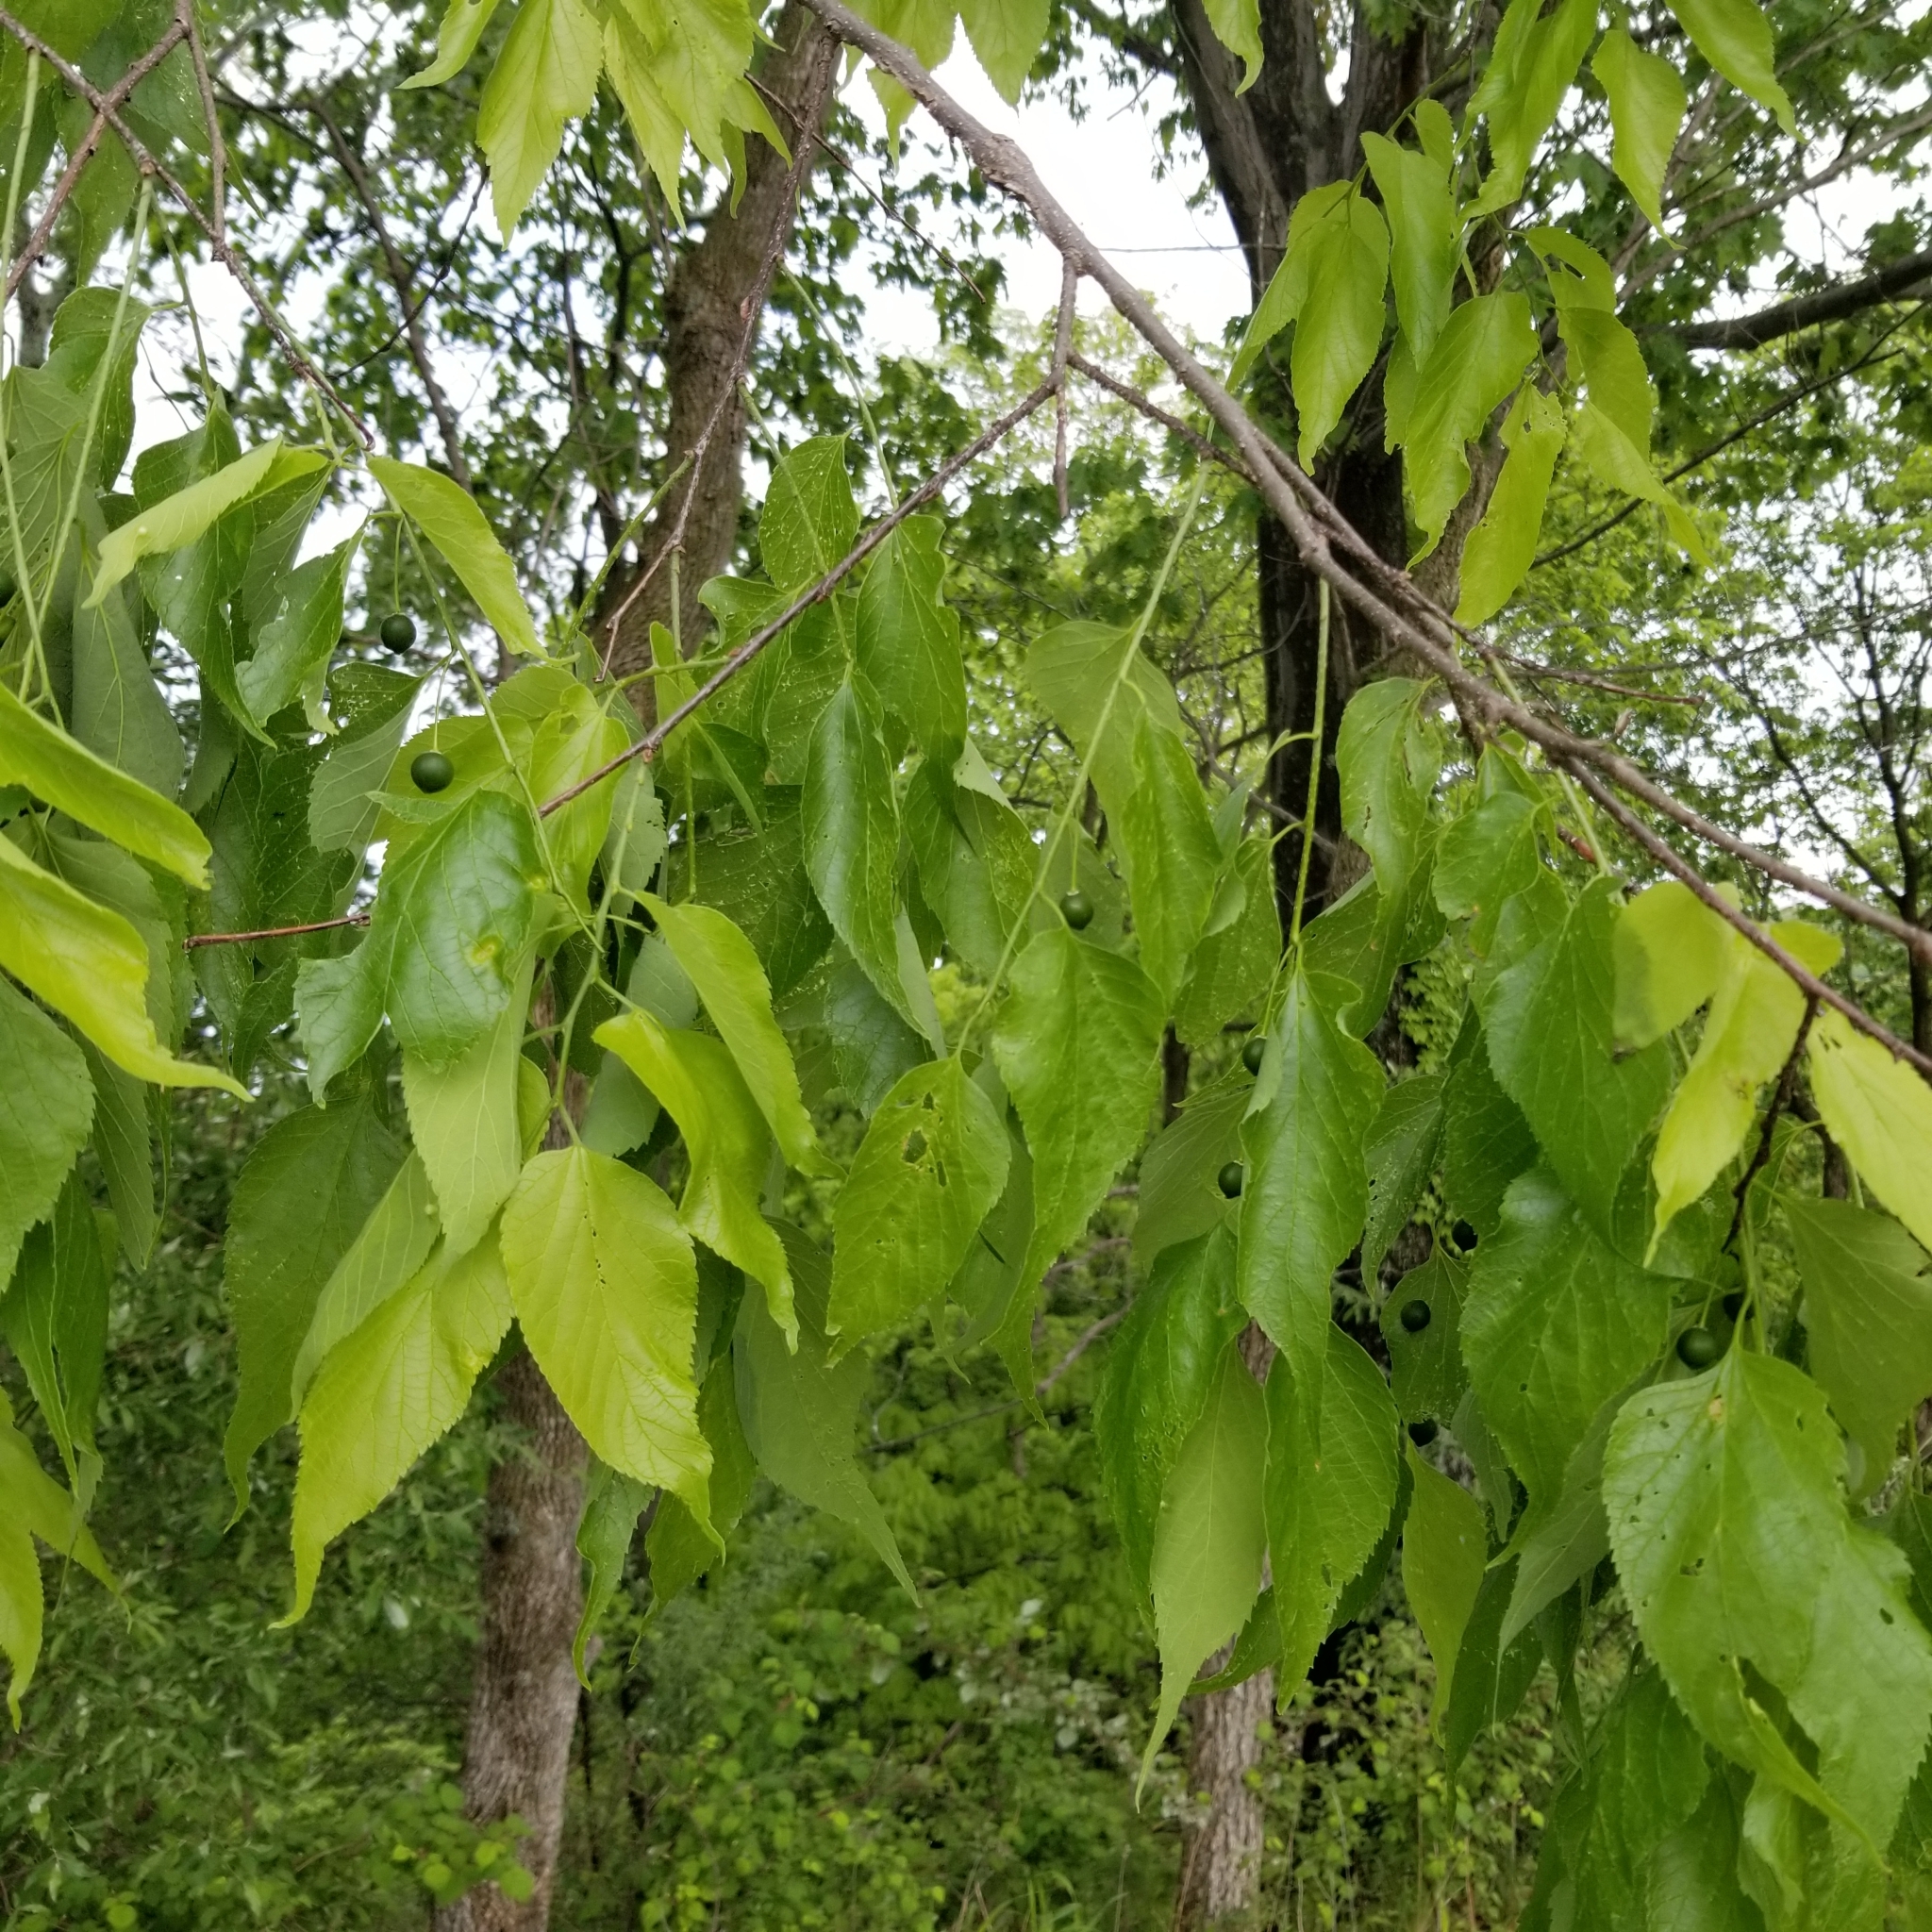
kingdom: Plantae
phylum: Tracheophyta
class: Magnoliopsida
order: Rosales
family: Cannabaceae
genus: Celtis
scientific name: Celtis occidentalis
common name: Common hackberry
